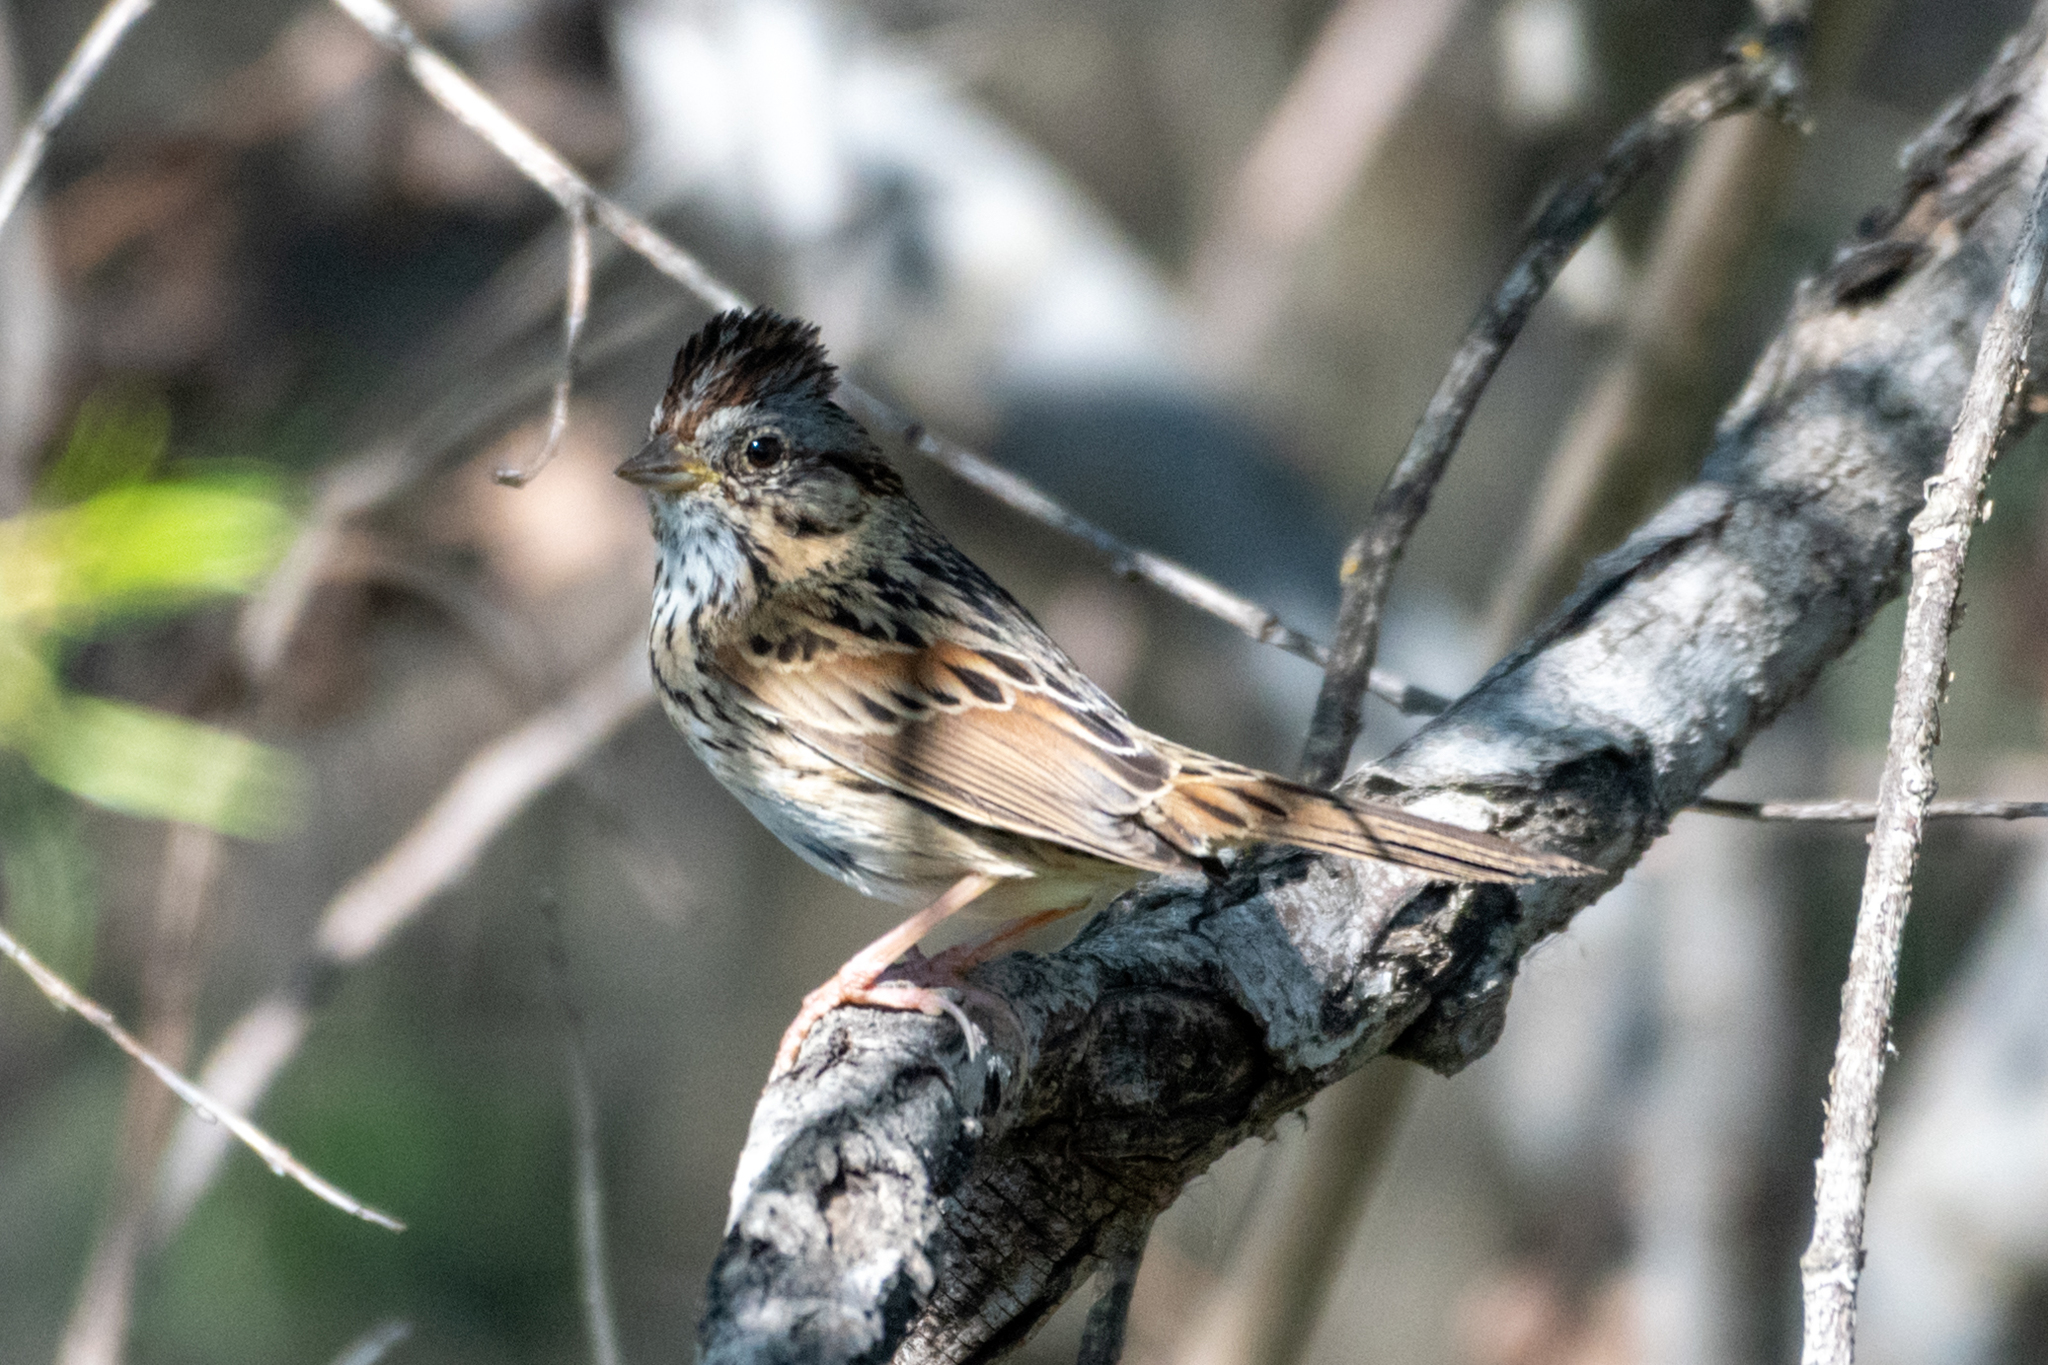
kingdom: Animalia
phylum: Chordata
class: Aves
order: Passeriformes
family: Passerellidae
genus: Melospiza
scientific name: Melospiza lincolnii
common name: Lincoln's sparrow
